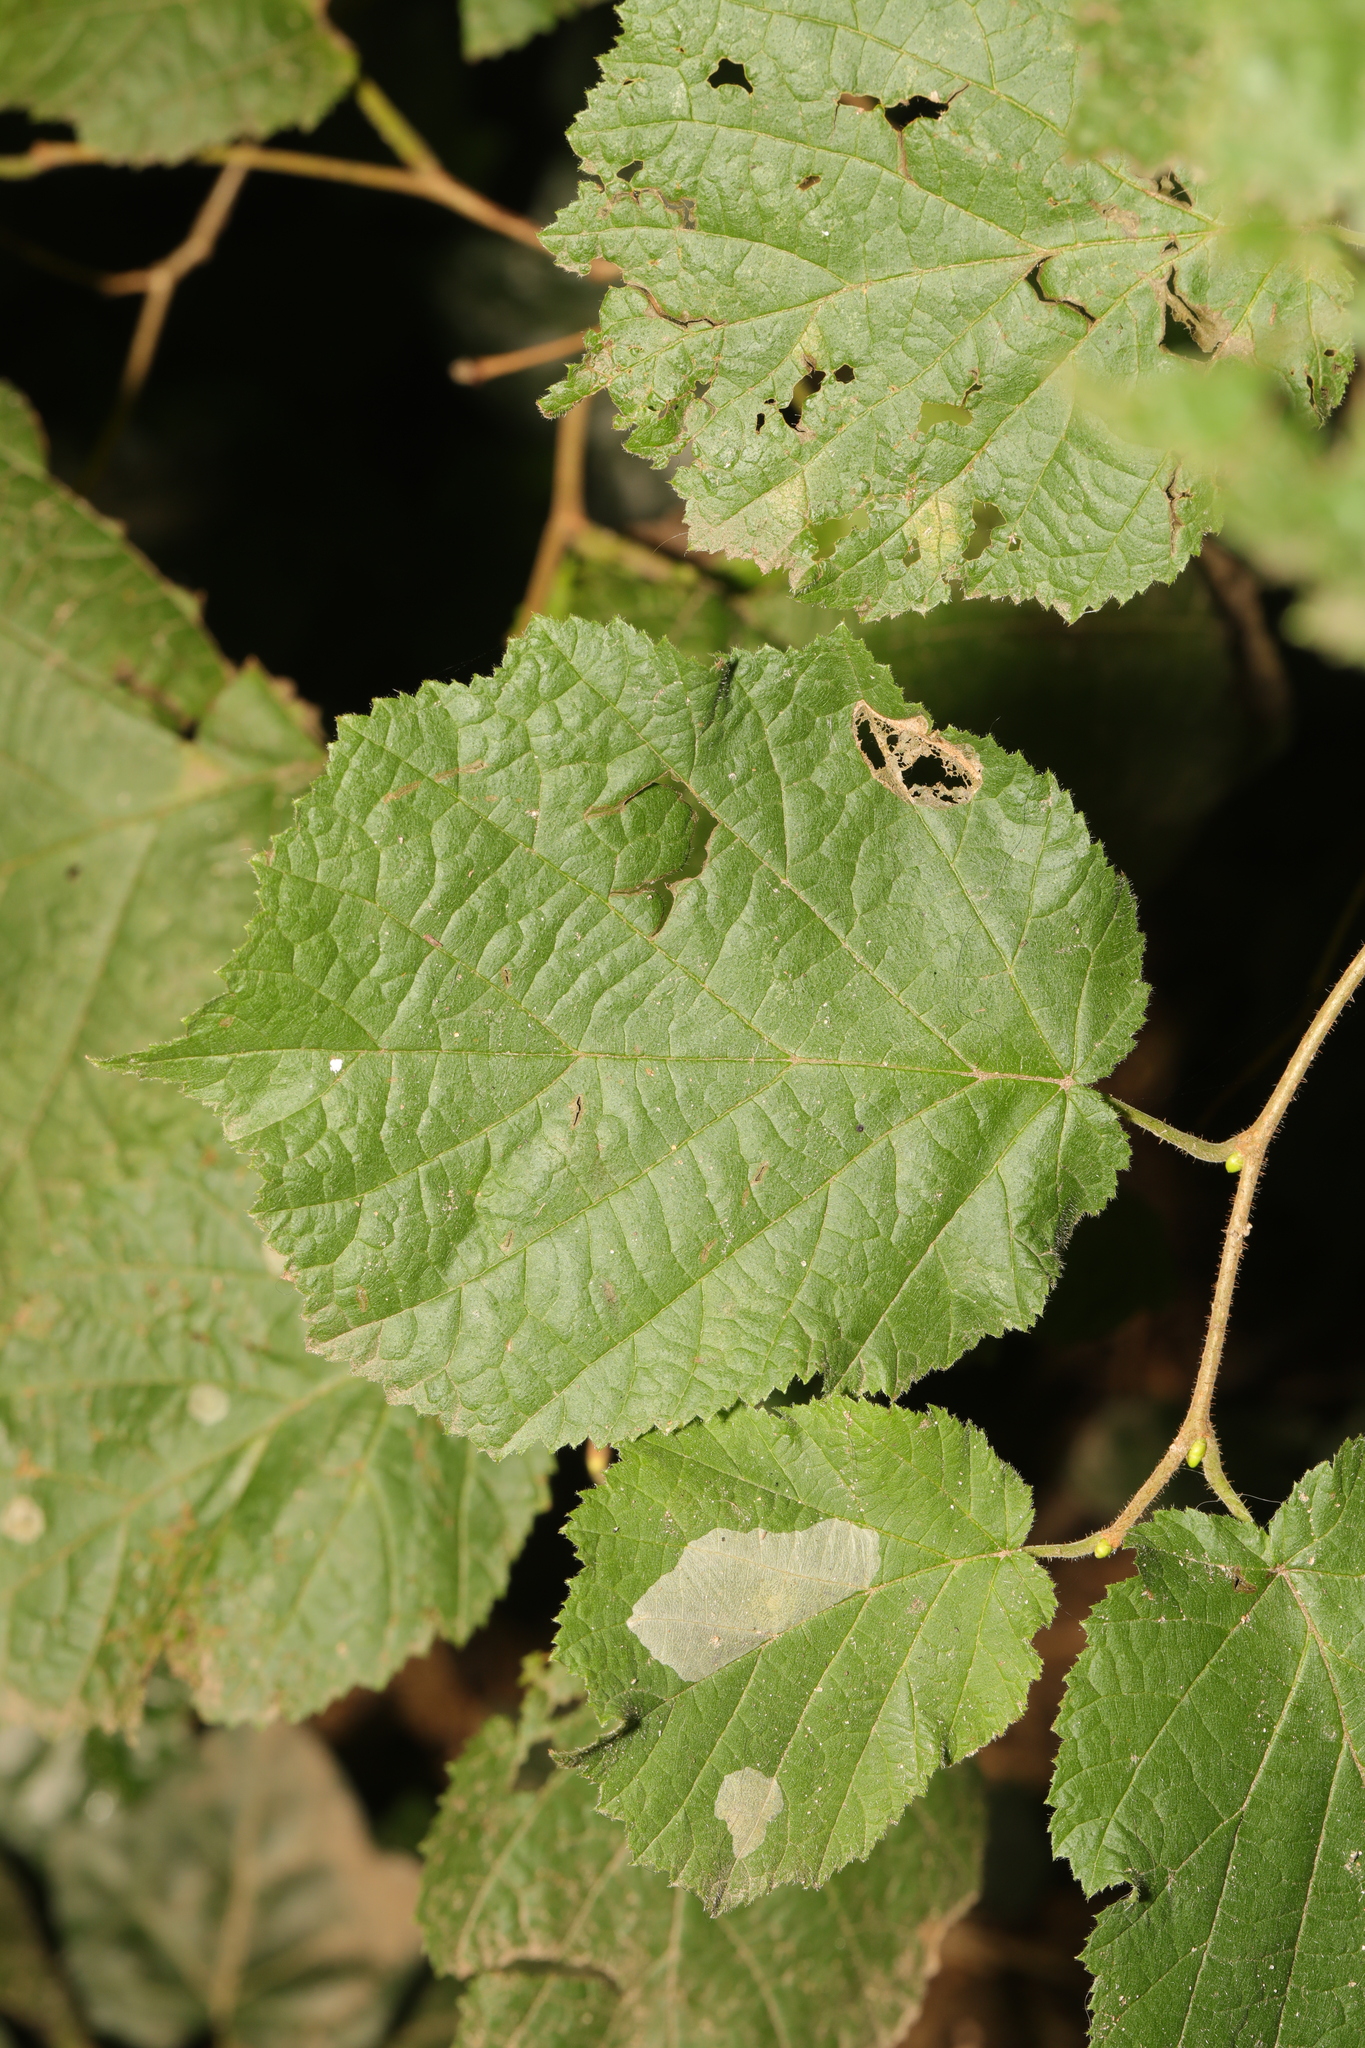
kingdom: Plantae
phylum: Tracheophyta
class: Magnoliopsida
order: Fagales
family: Betulaceae
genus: Corylus
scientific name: Corylus avellana
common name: European hazel
